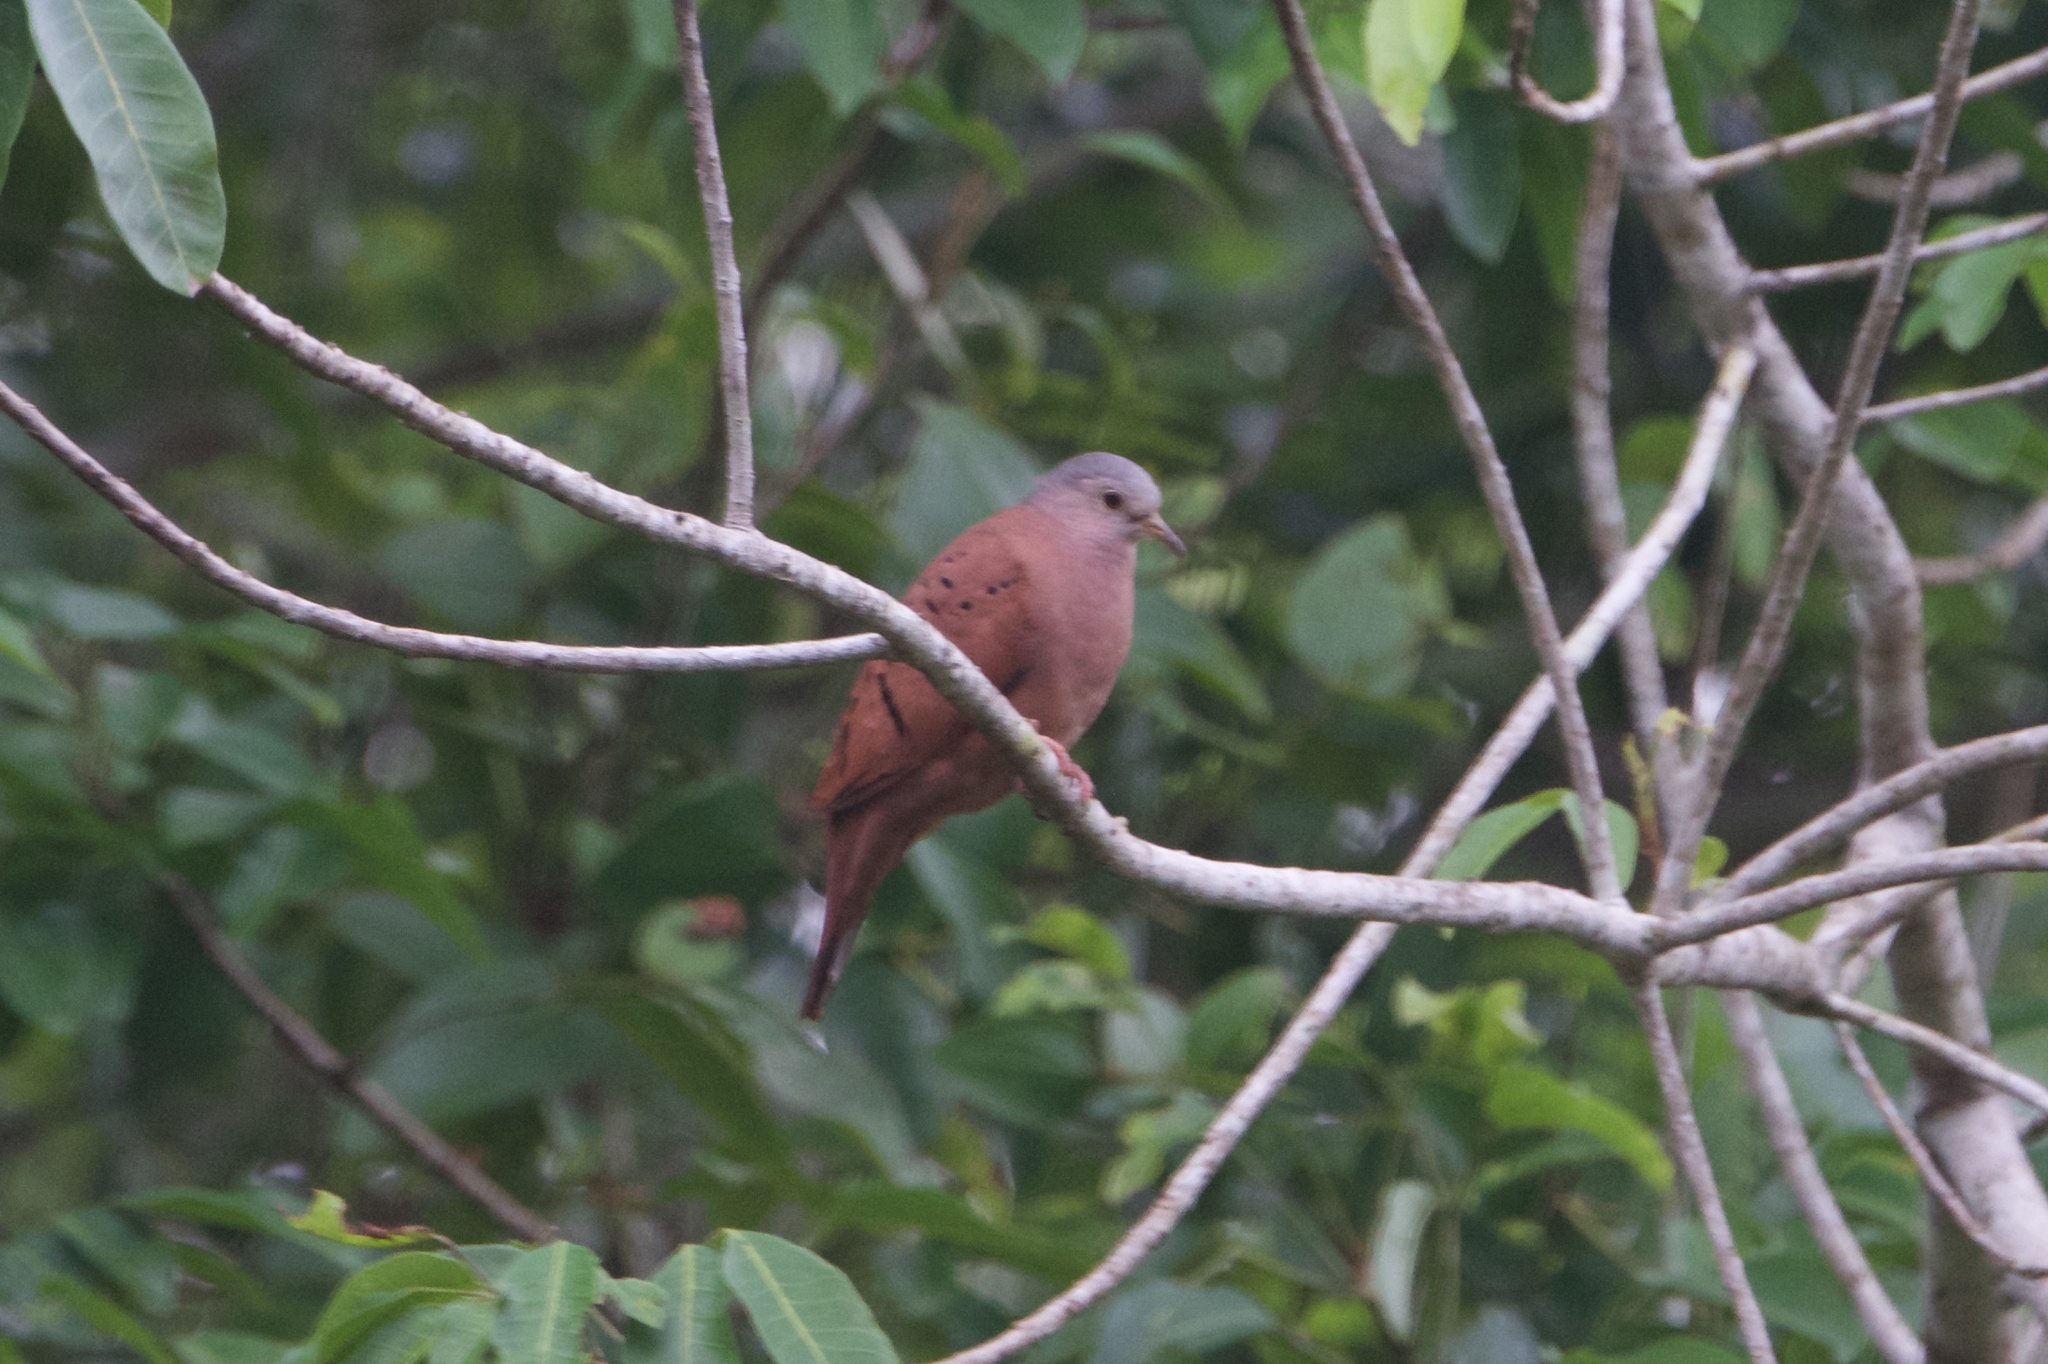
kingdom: Animalia
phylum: Chordata
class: Aves
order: Columbiformes
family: Columbidae
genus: Columbina
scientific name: Columbina talpacoti
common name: Ruddy ground dove
